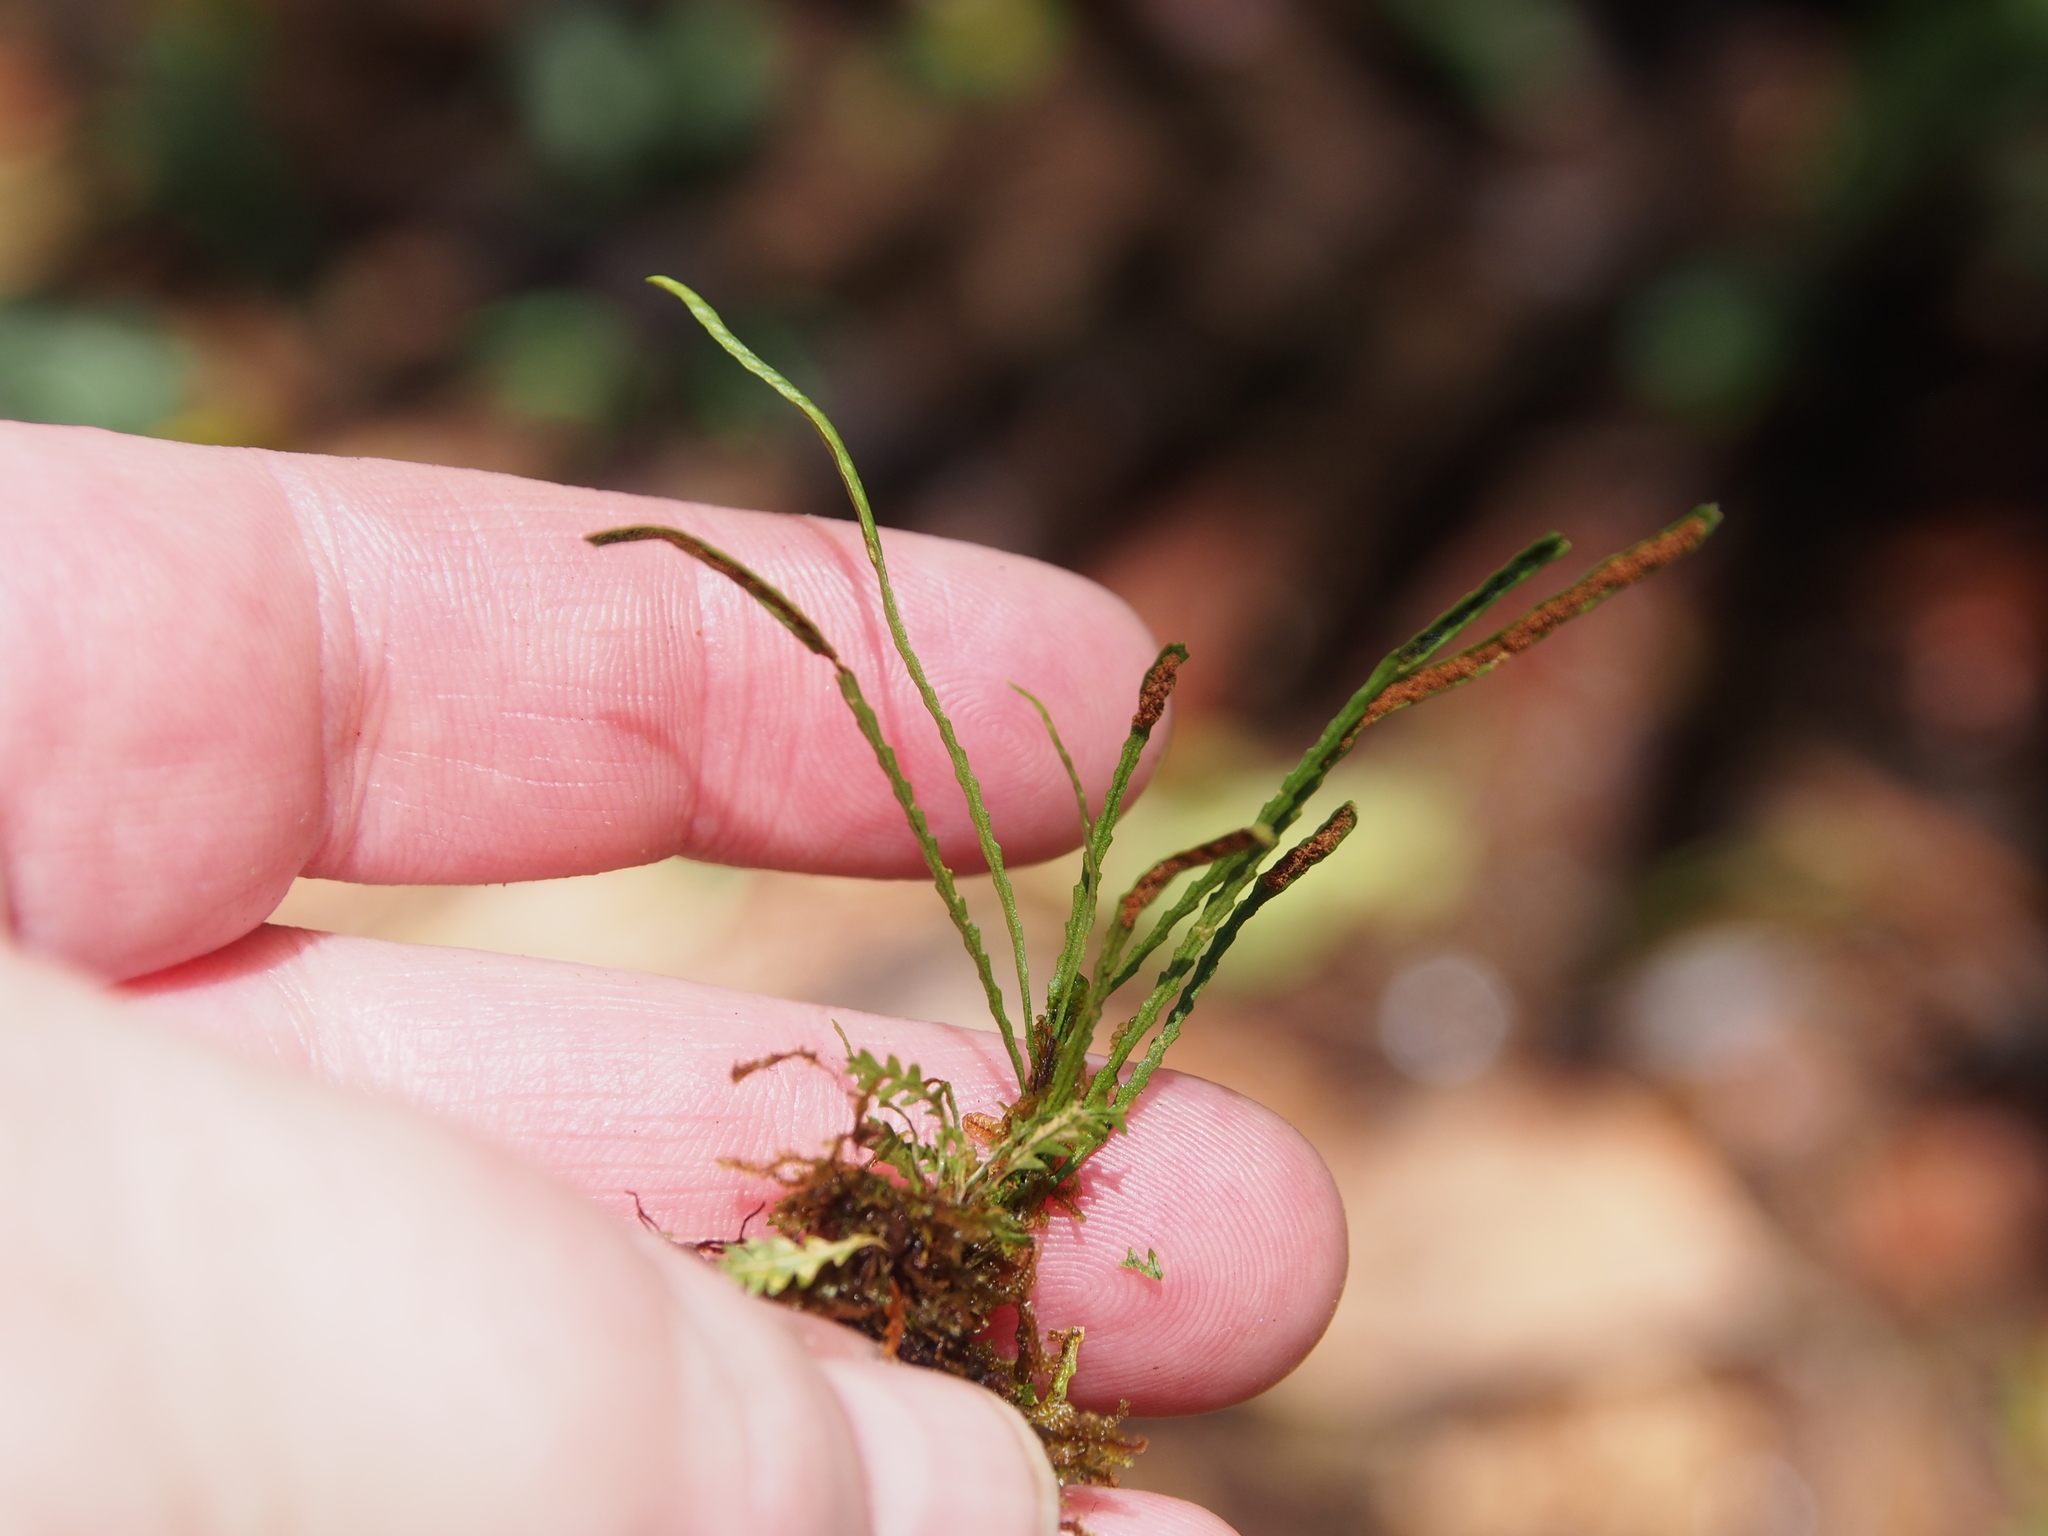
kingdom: Plantae
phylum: Tracheophyta
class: Polypodiopsida
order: Polypodiales
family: Polypodiaceae
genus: Cochlidium
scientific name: Cochlidium serrulatum
